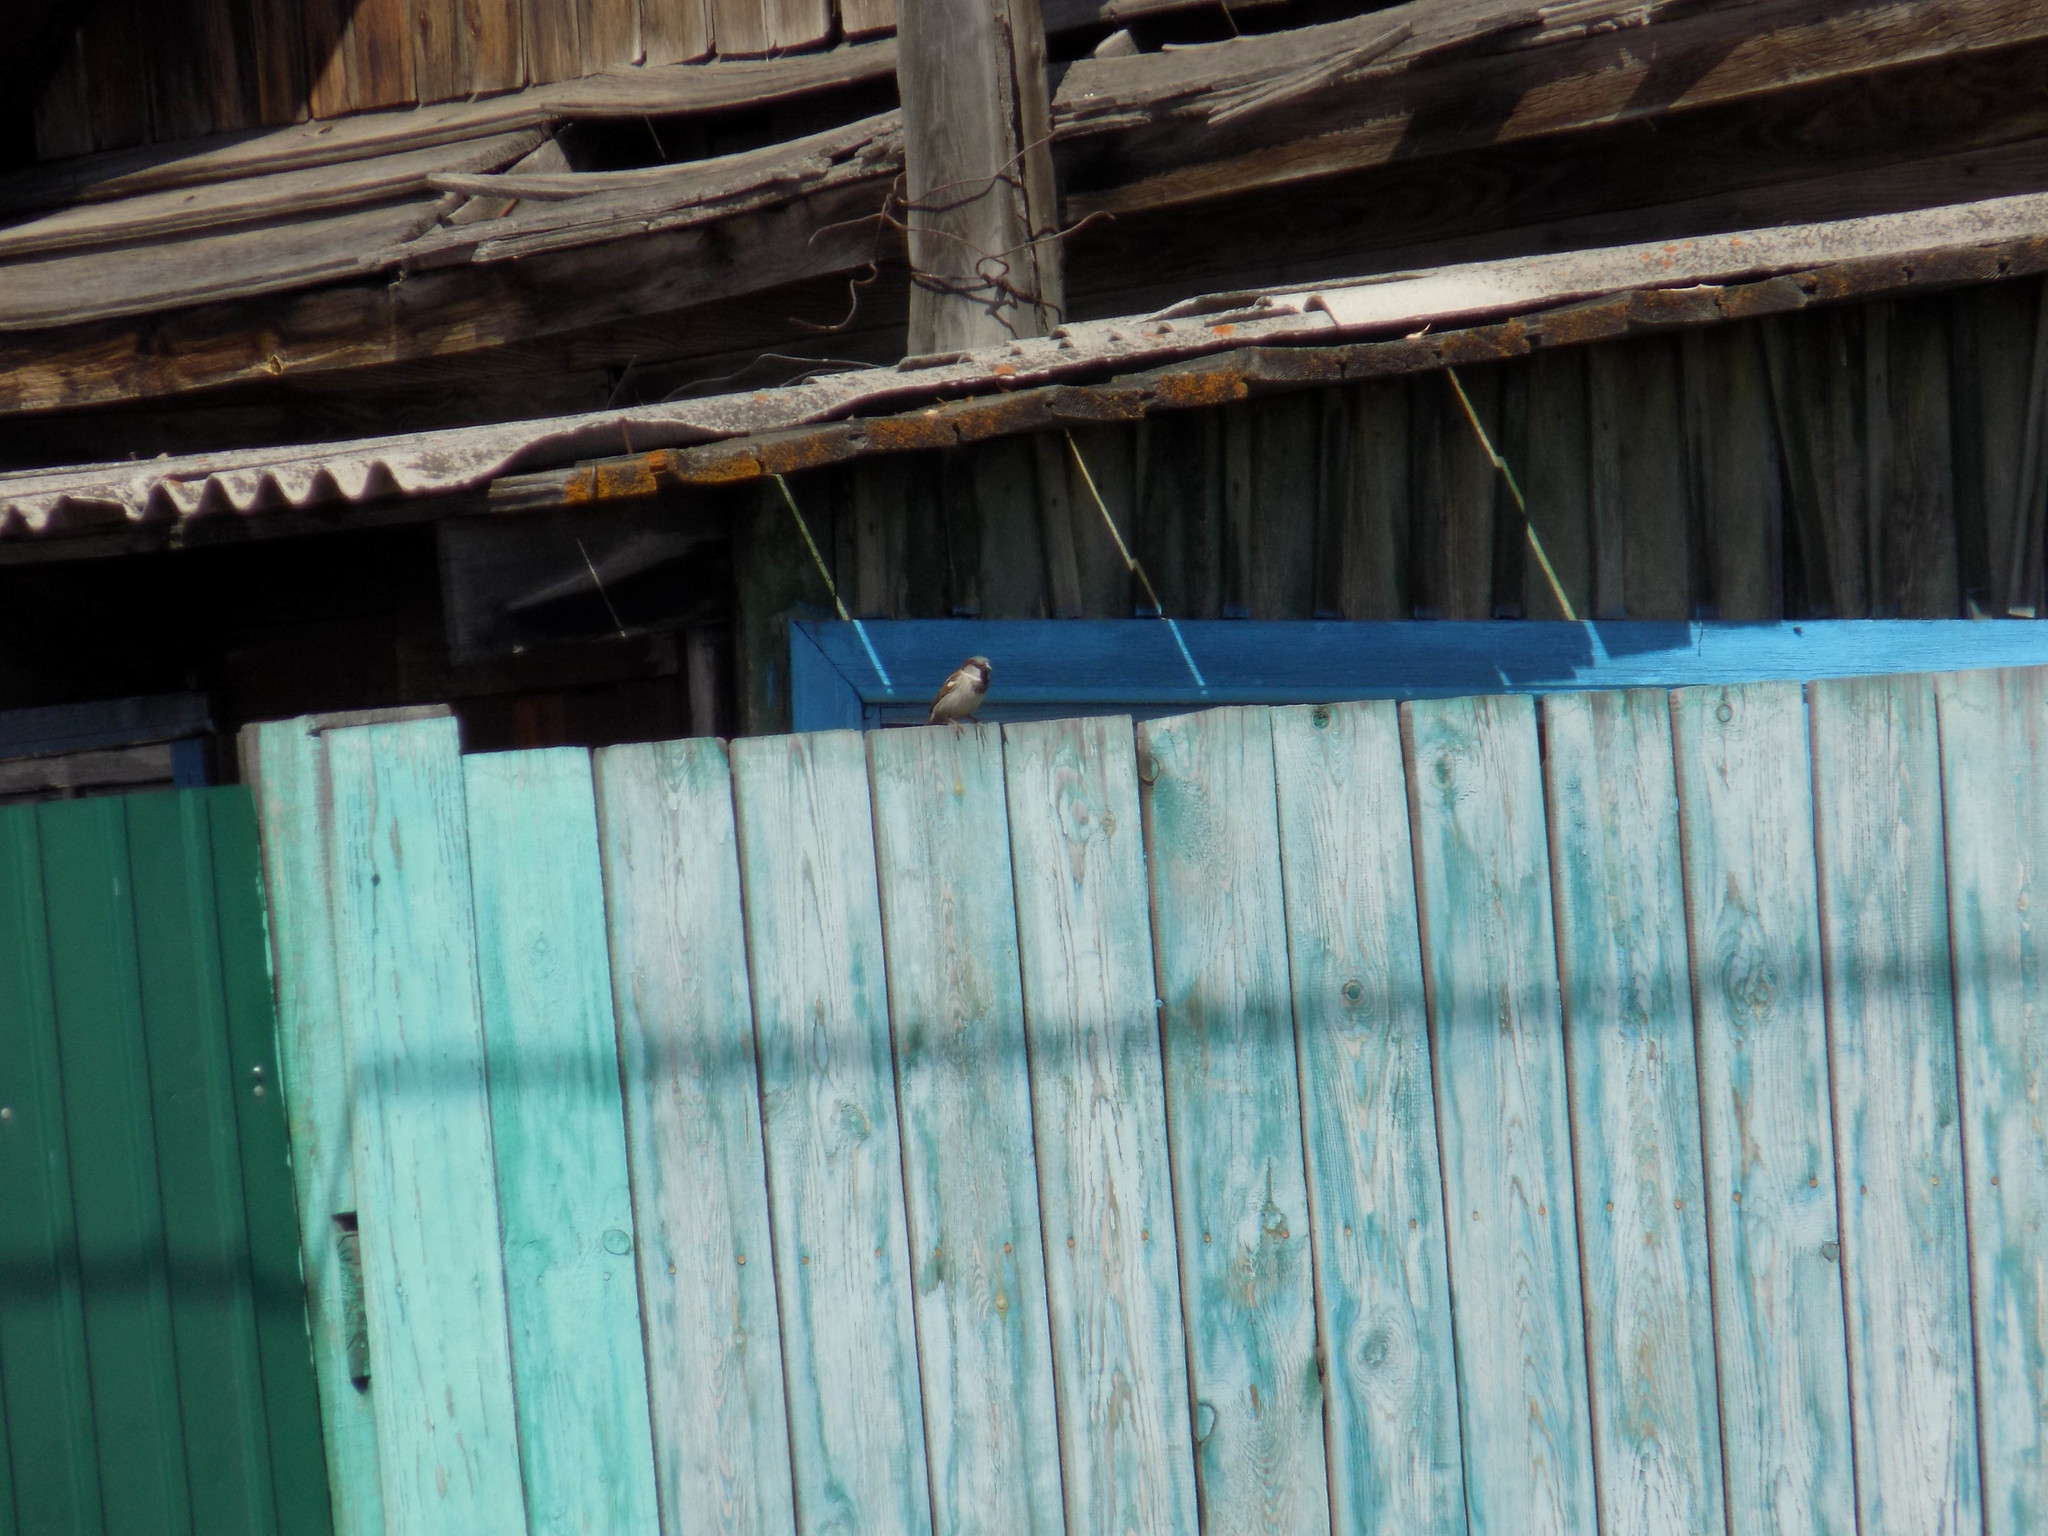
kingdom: Animalia
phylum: Chordata
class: Aves
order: Passeriformes
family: Passeridae
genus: Passer
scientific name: Passer domesticus
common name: House sparrow
